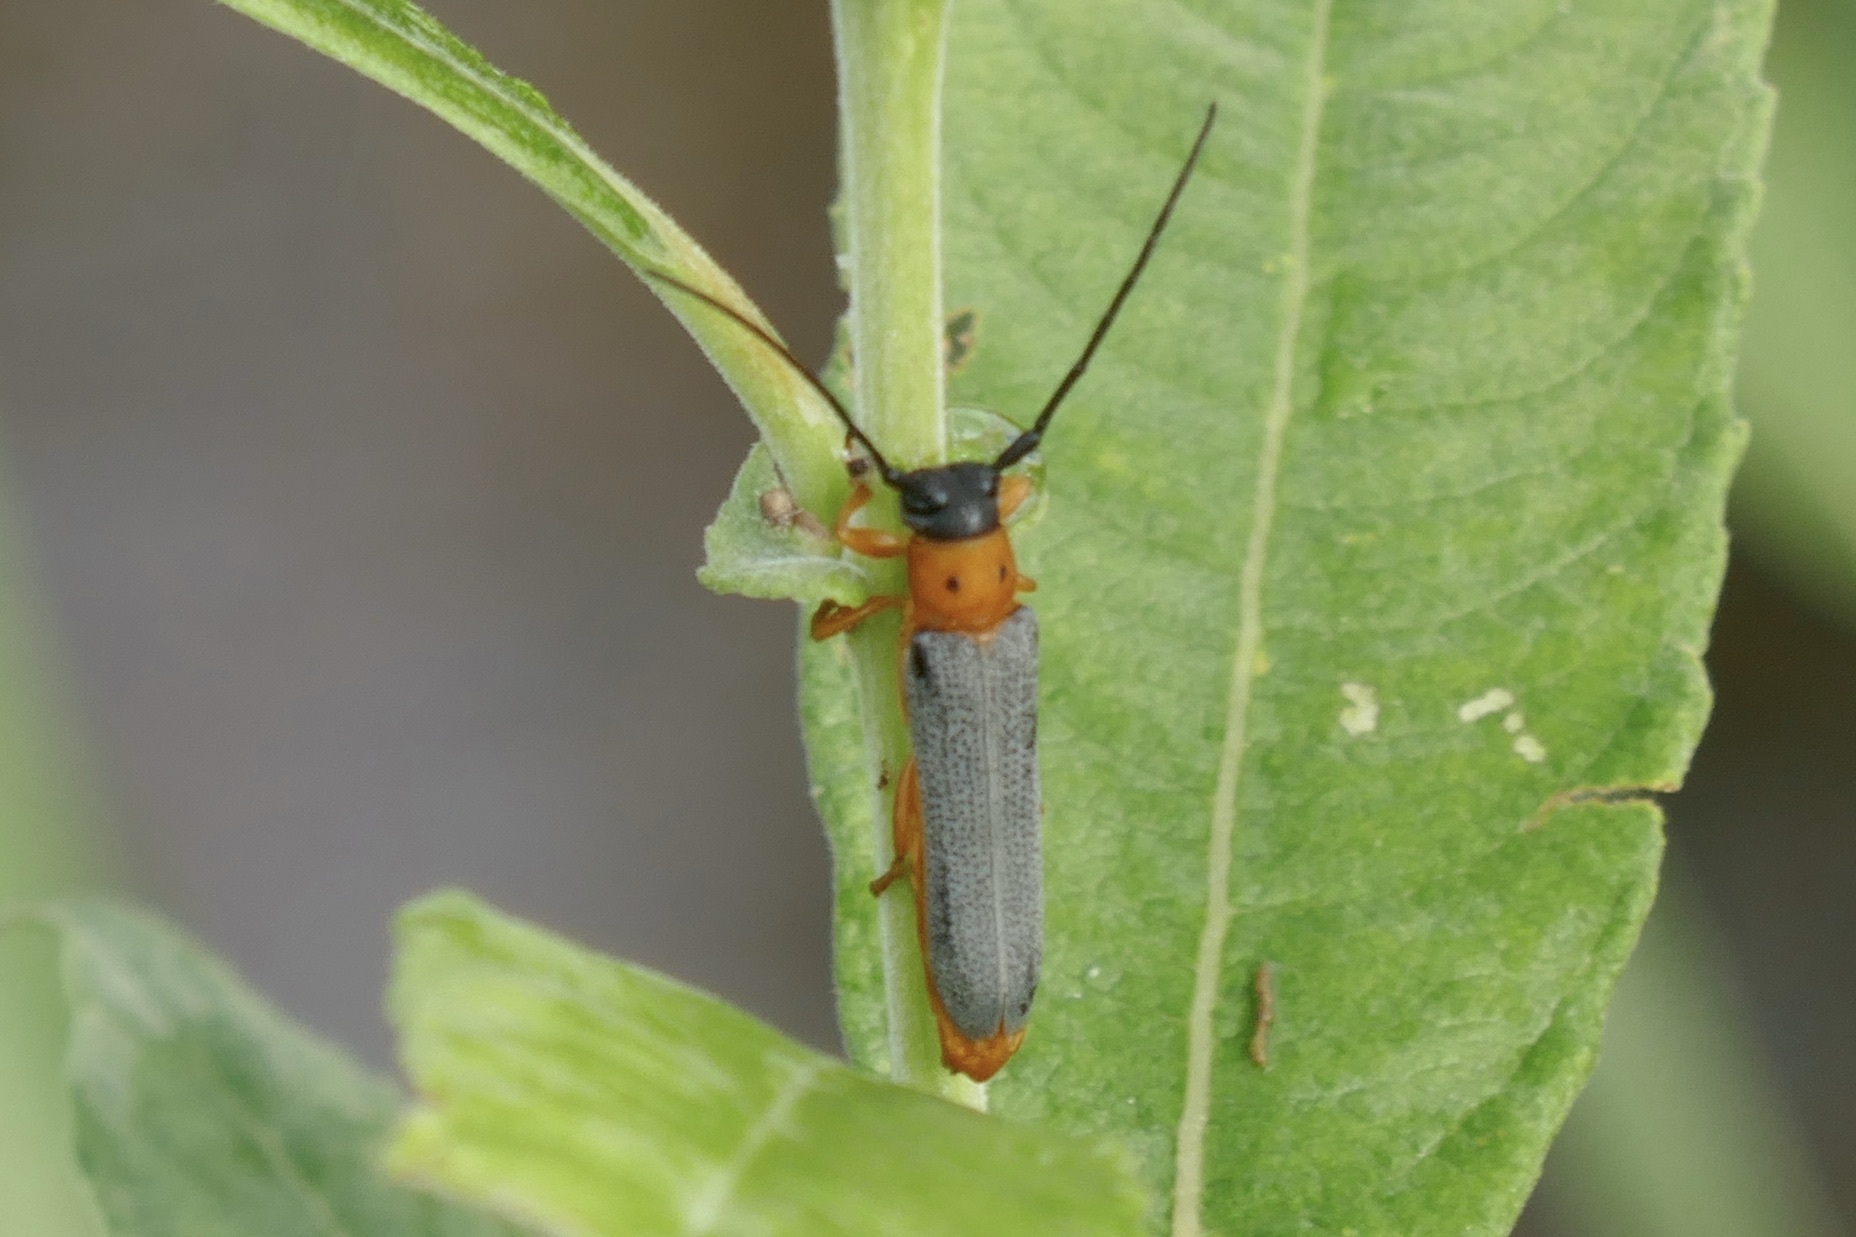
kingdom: Animalia
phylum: Arthropoda
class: Insecta
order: Coleoptera
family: Cerambycidae
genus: Oberea
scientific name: Oberea oculata
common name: Eyed longhorn beetle
